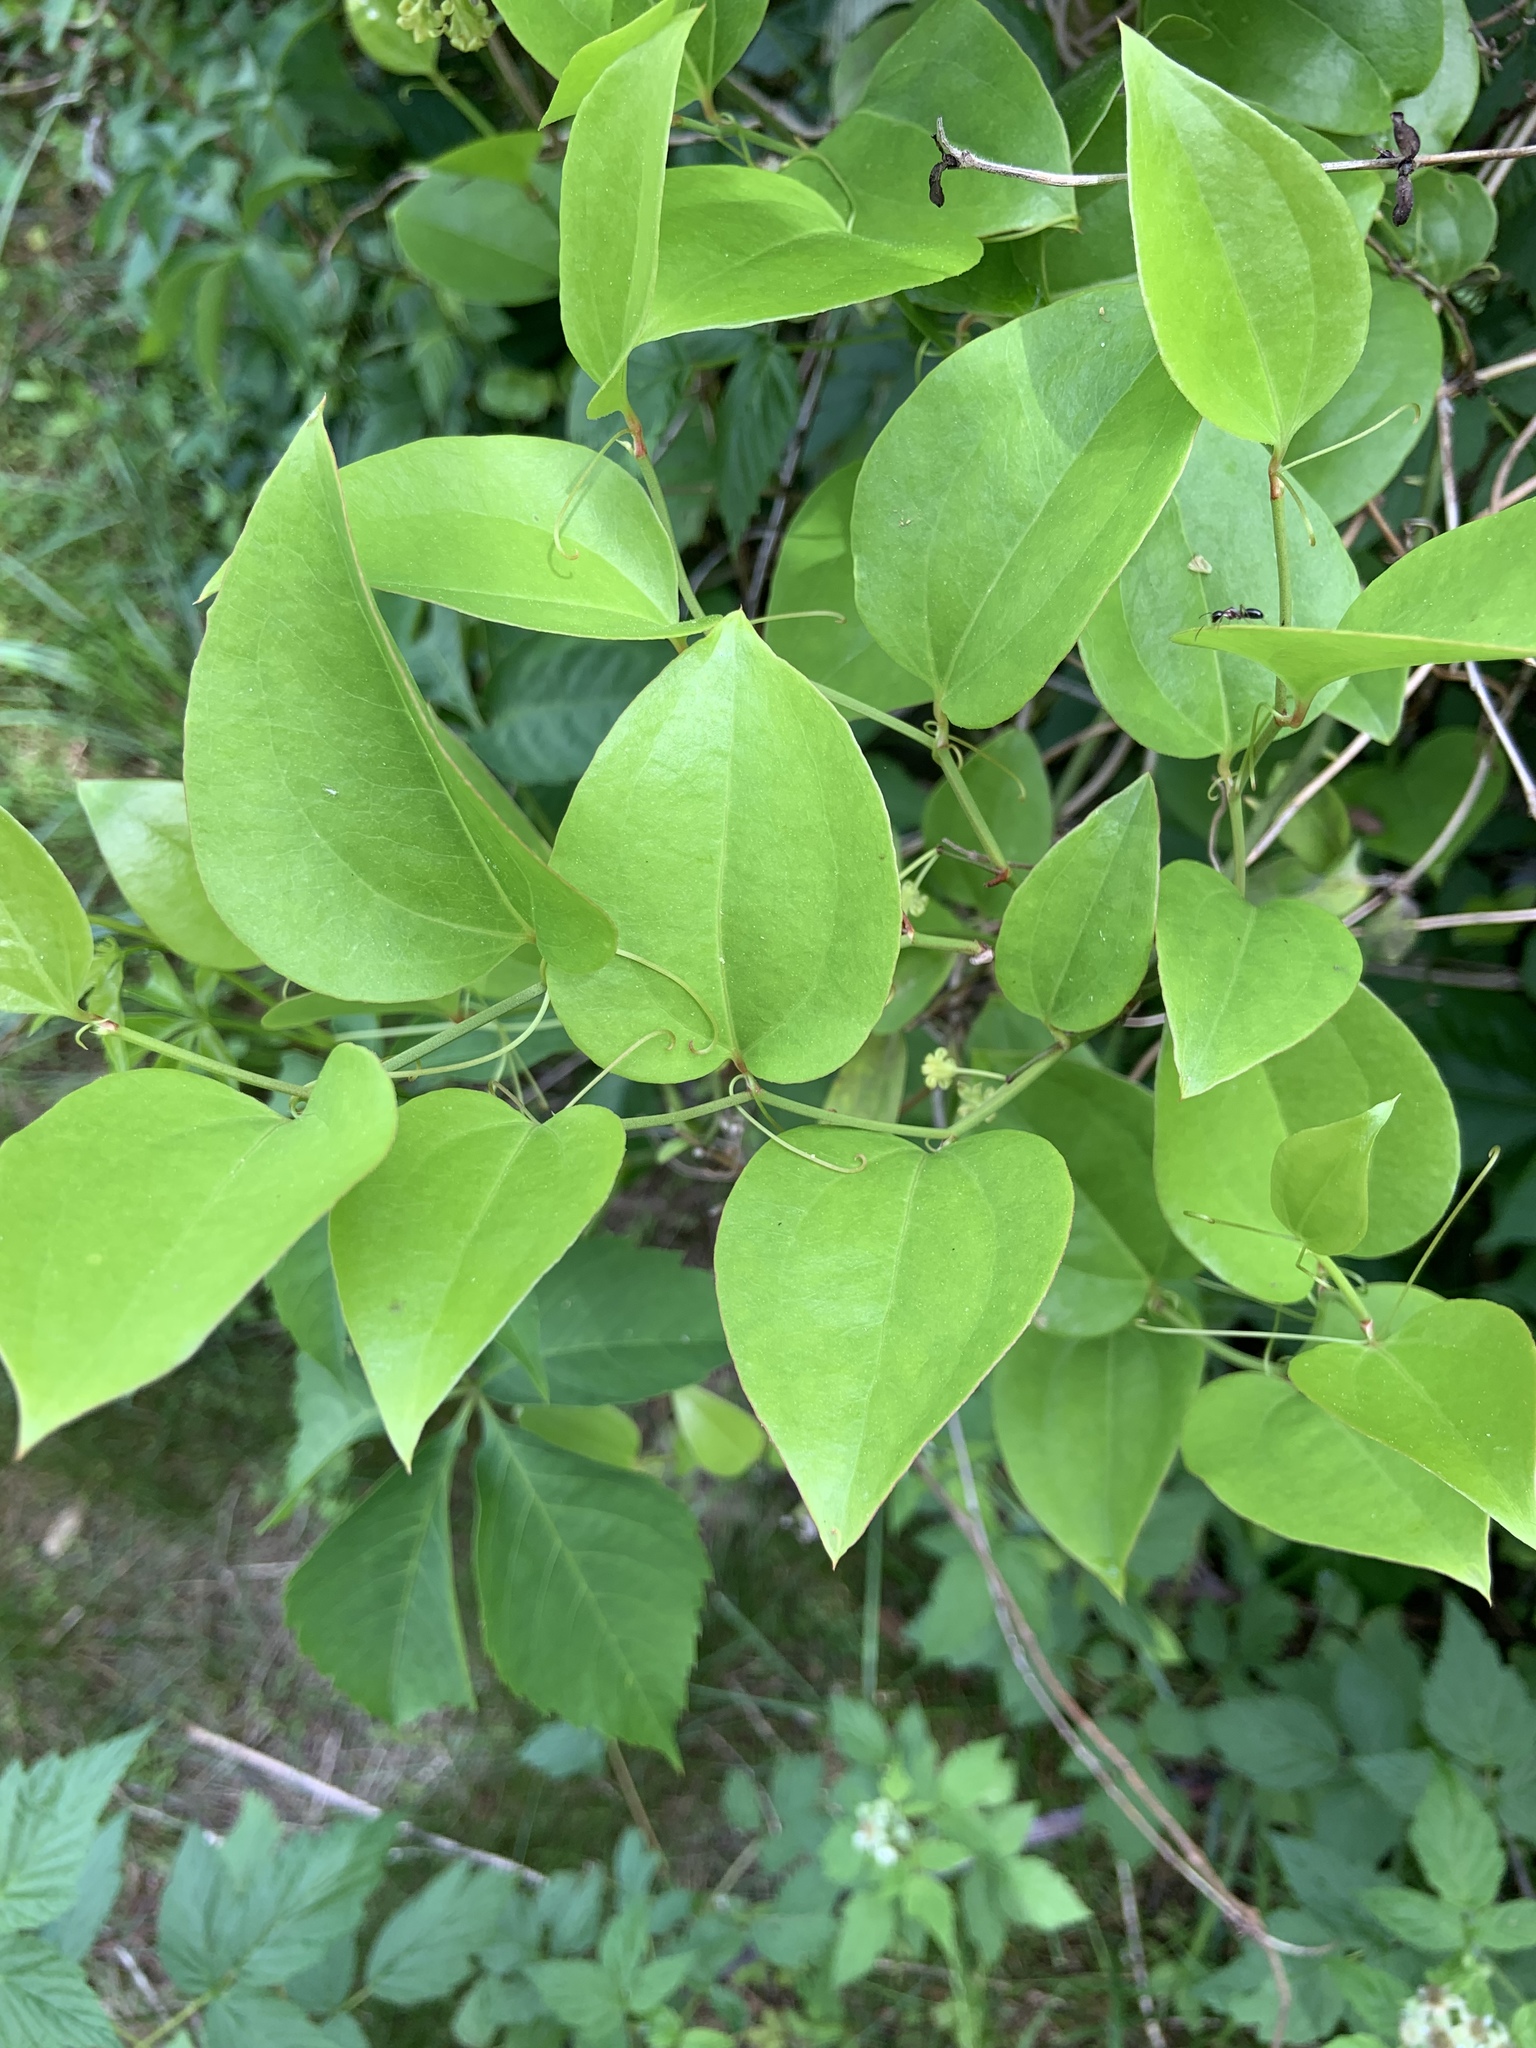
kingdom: Plantae
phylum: Tracheophyta
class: Liliopsida
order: Liliales
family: Smilacaceae
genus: Smilax
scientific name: Smilax rotundifolia
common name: Bullbriar
